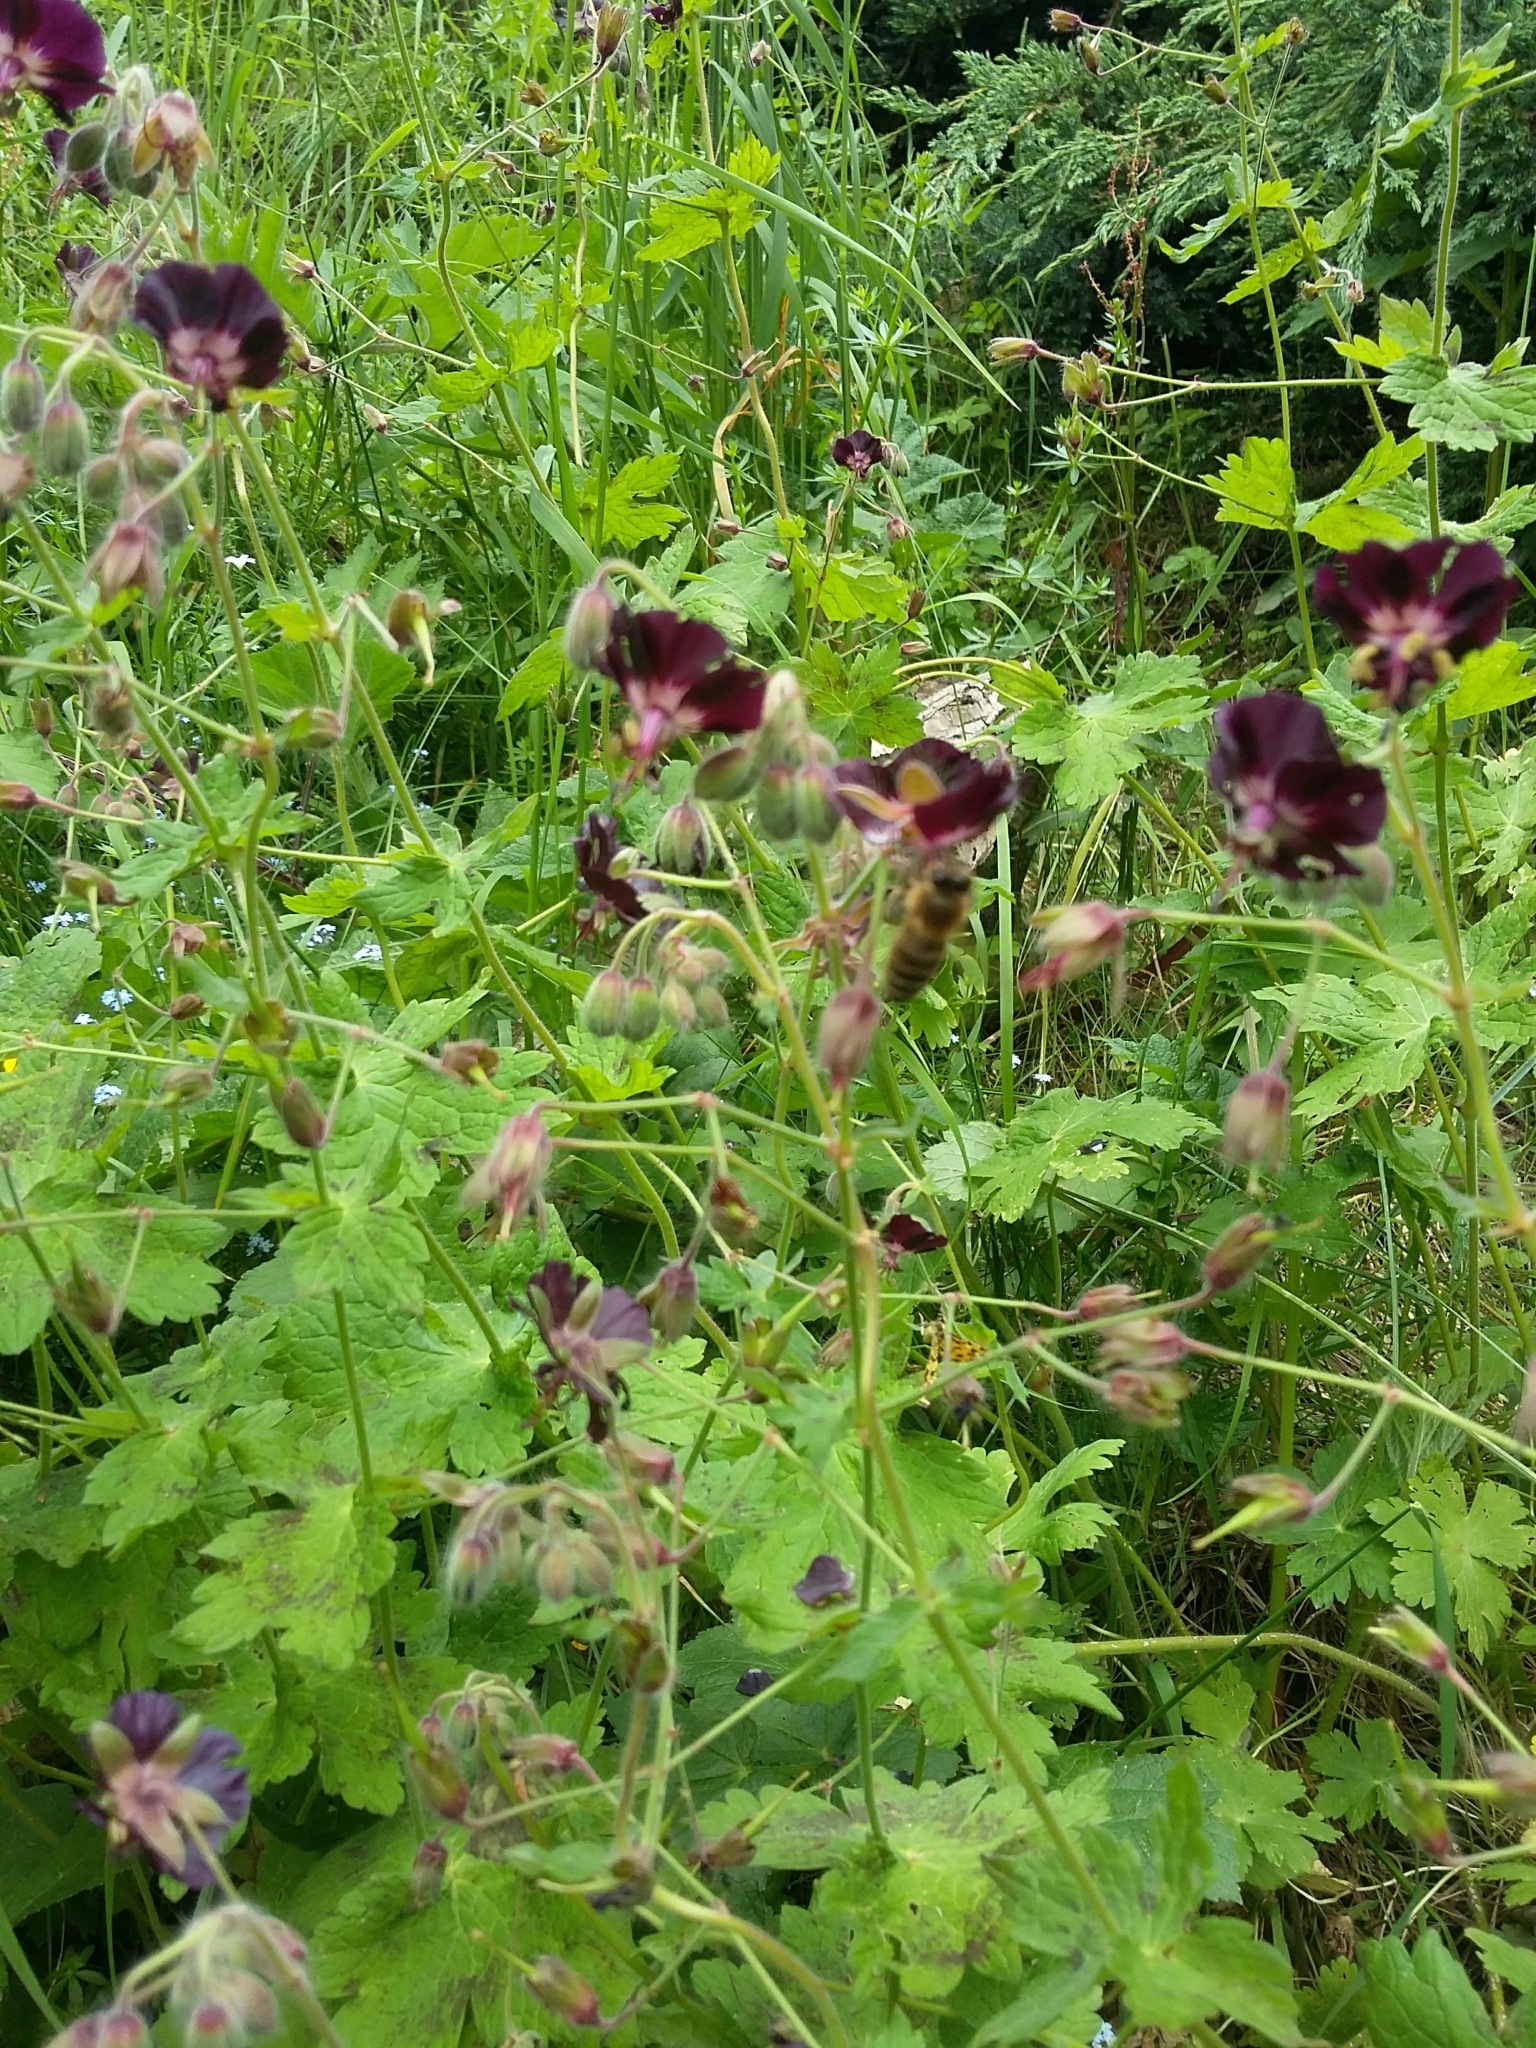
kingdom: Plantae
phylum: Tracheophyta
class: Magnoliopsida
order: Geraniales
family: Geraniaceae
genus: Geranium
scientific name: Geranium phaeum
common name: Dusky crane's-bill
